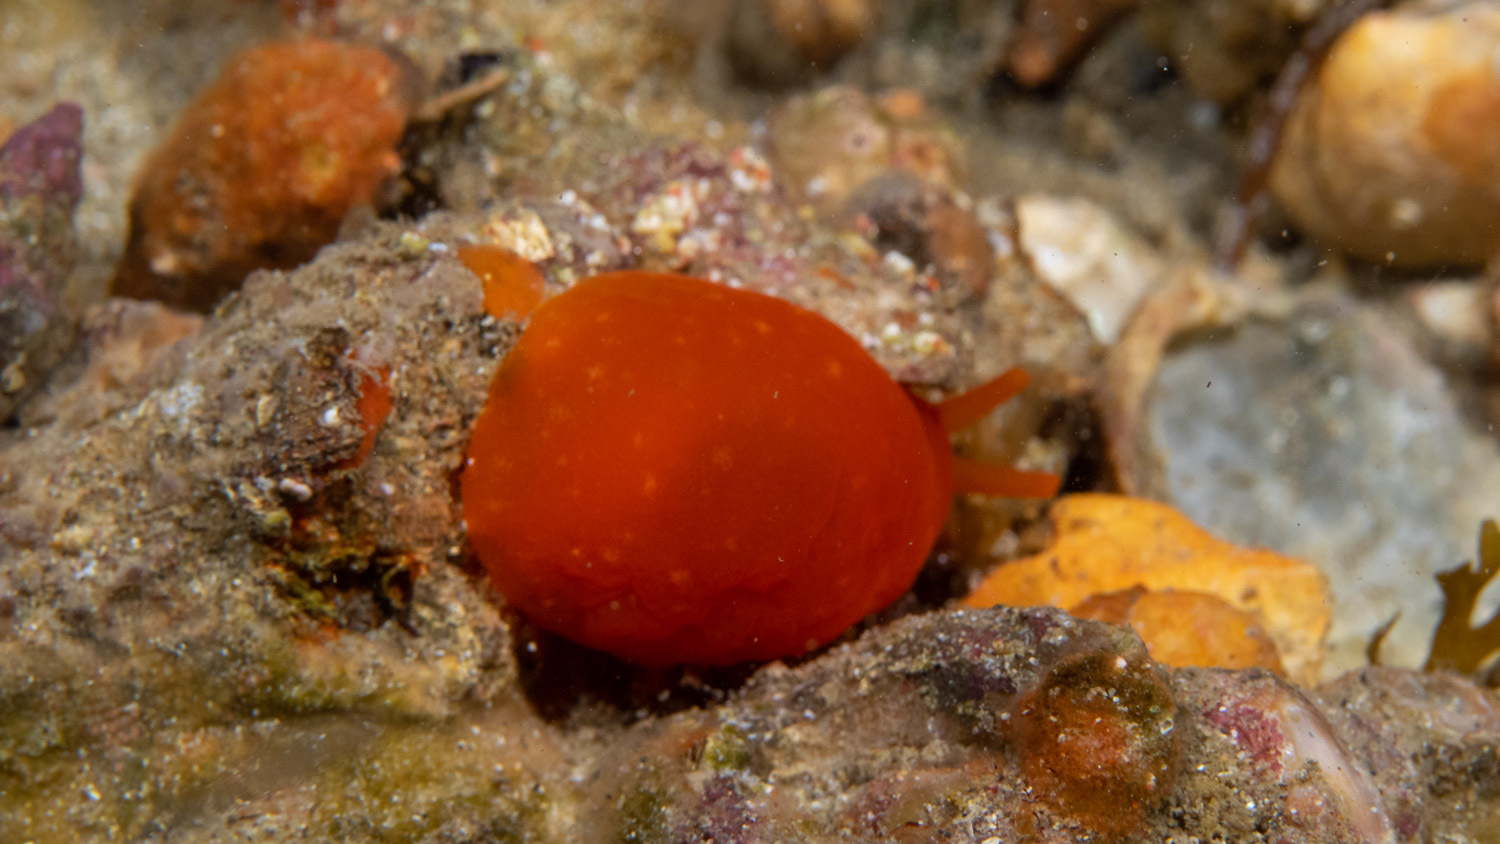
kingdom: Animalia
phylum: Mollusca
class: Gastropoda
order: Pleurobranchida
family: Pleurobranchidae
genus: Berthellina
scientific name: Berthellina citrina
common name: Lemon pleurobranch
